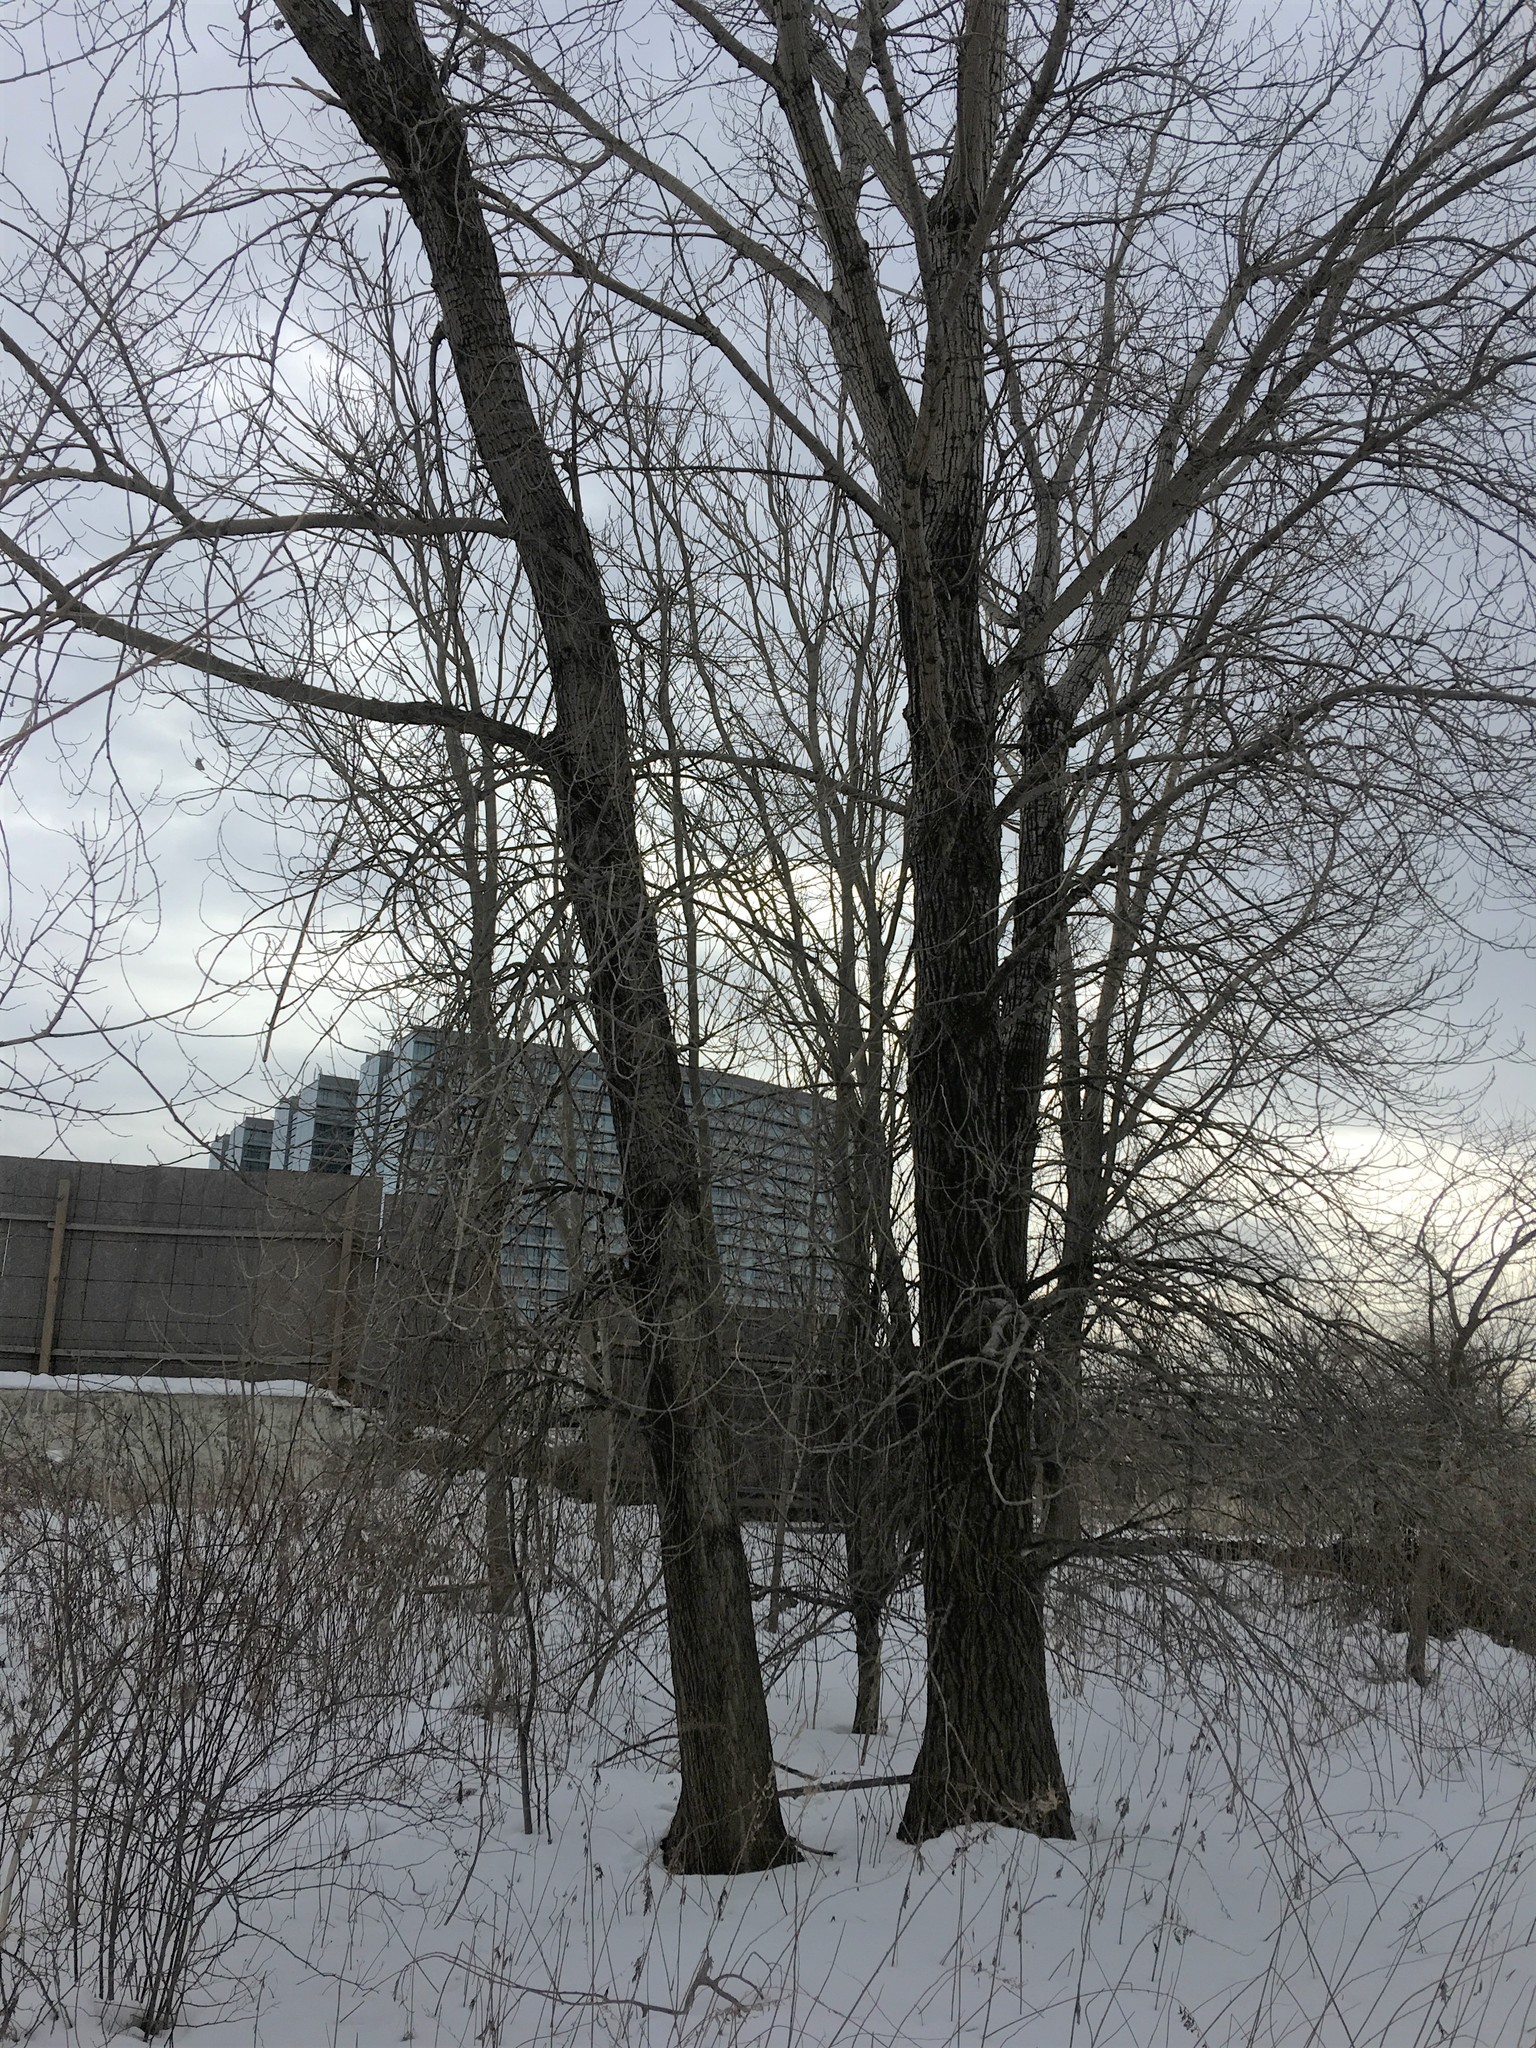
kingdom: Plantae
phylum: Tracheophyta
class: Magnoliopsida
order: Malpighiales
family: Salicaceae
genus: Populus
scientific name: Populus deltoides
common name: Eastern cottonwood
